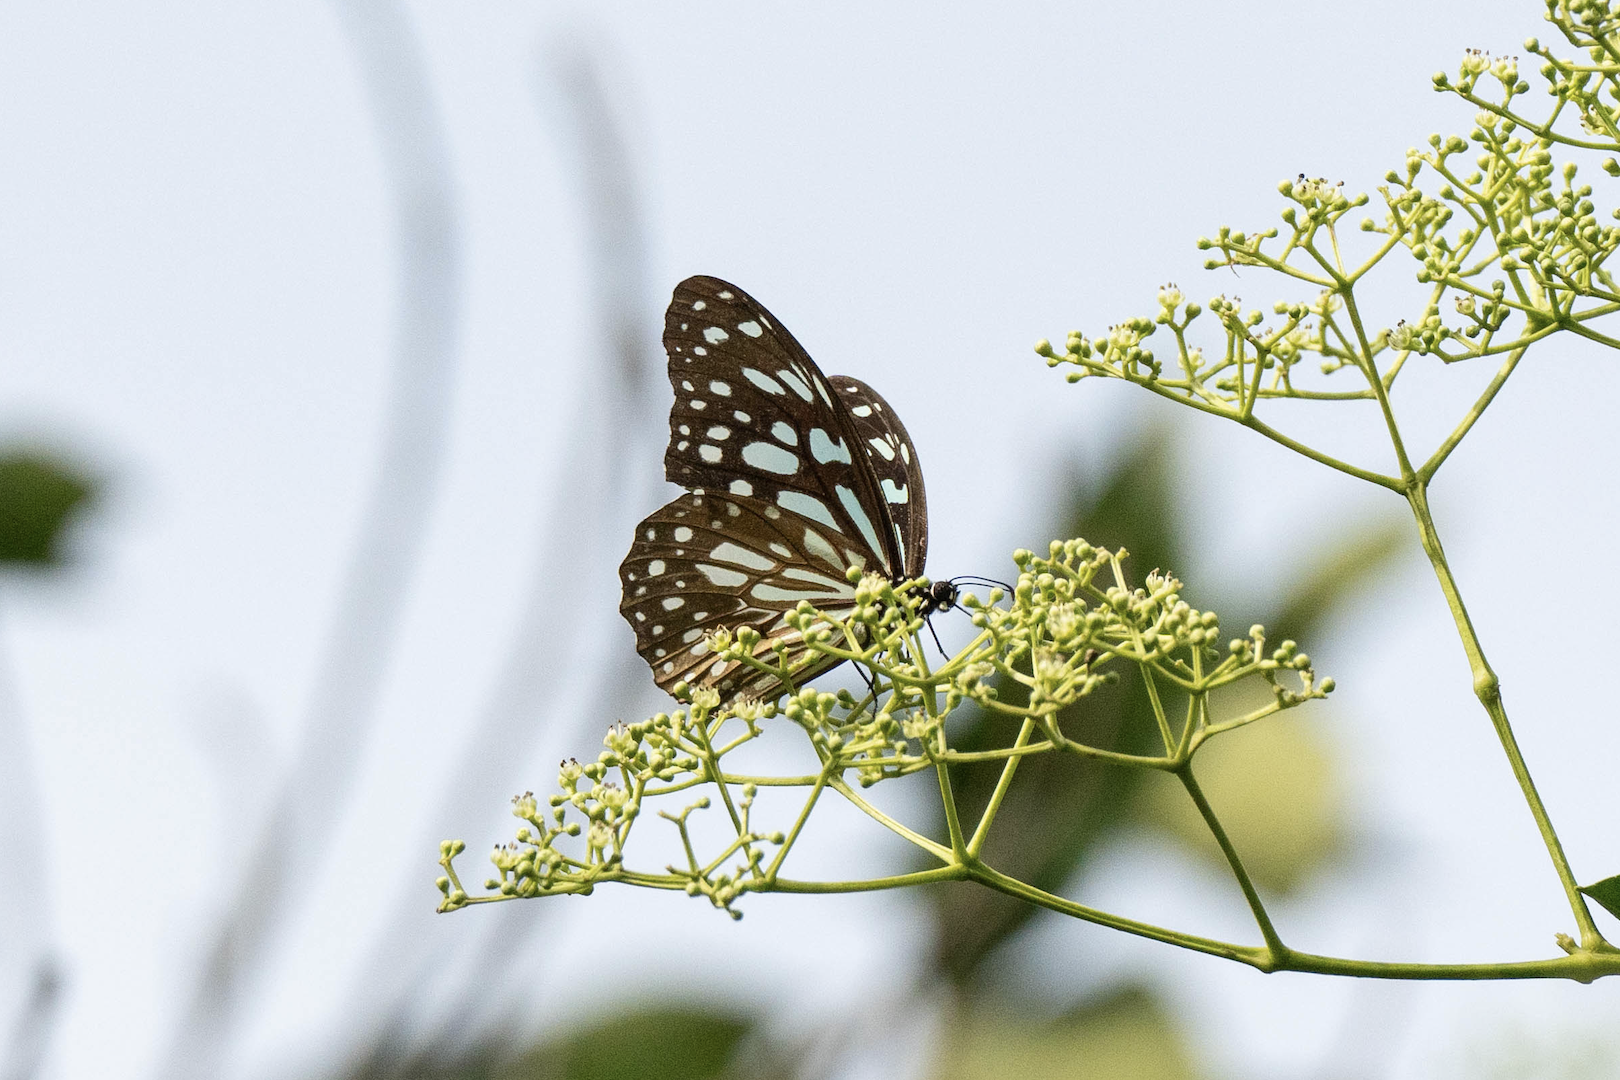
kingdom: Animalia
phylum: Arthropoda
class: Insecta
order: Lepidoptera
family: Nymphalidae
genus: Tirumala
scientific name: Tirumala limniace
